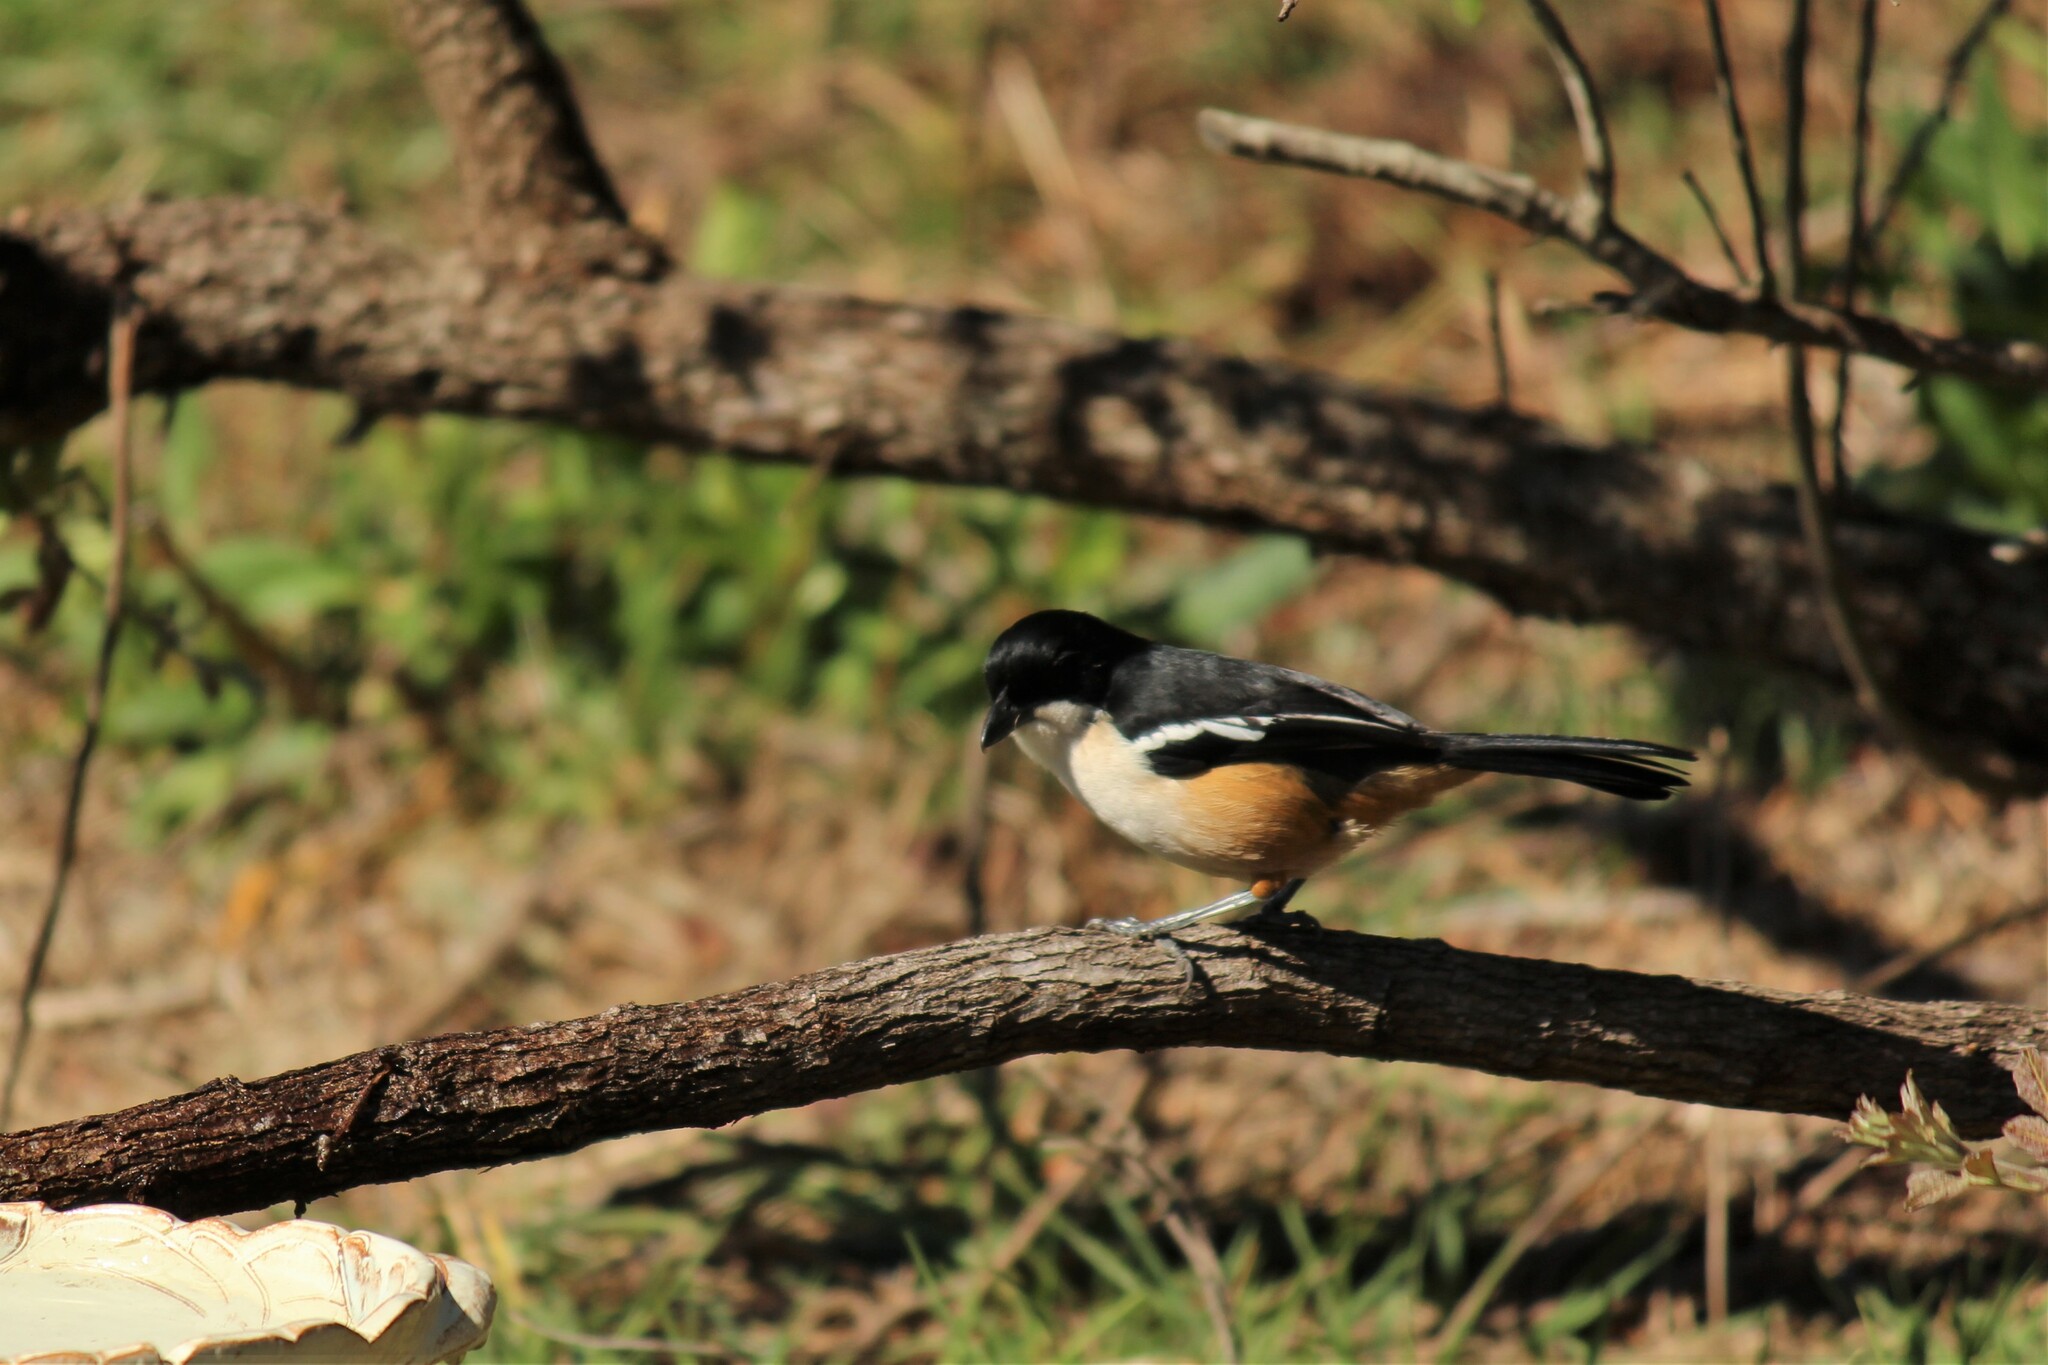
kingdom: Animalia
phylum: Chordata
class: Aves
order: Passeriformes
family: Malaconotidae
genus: Laniarius
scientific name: Laniarius ferrugineus
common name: Southern boubou
